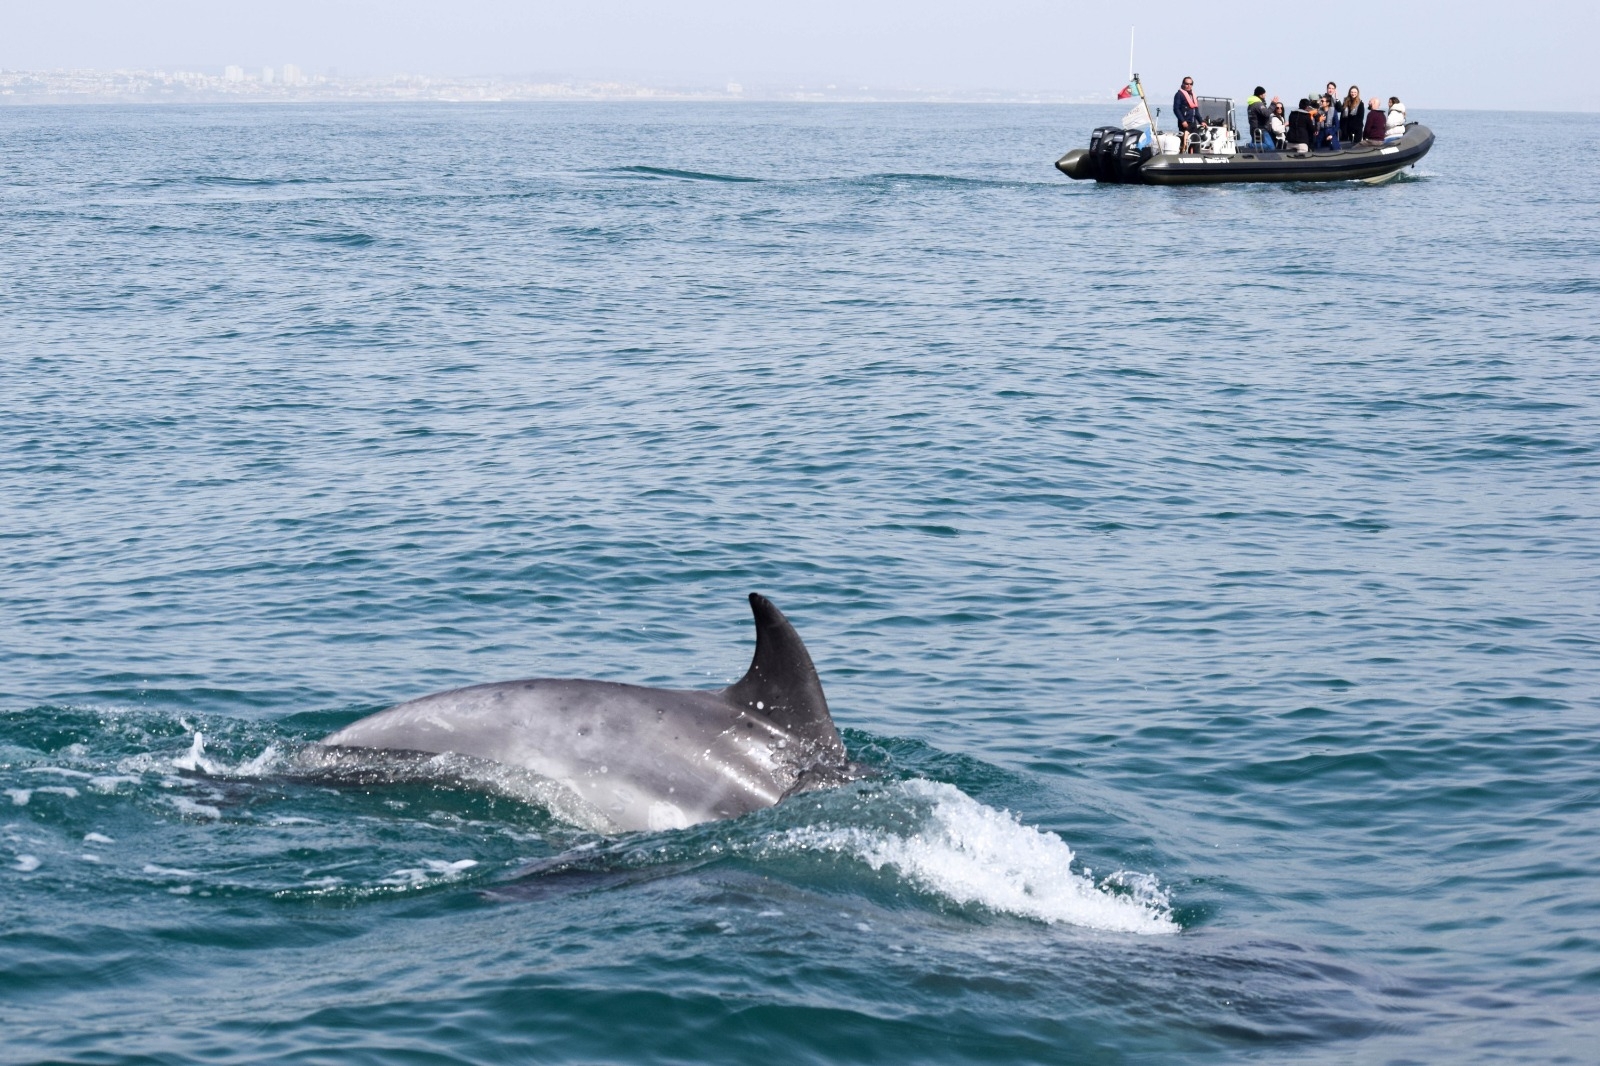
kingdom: Animalia
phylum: Chordata
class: Mammalia
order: Cetacea
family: Delphinidae
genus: Tursiops
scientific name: Tursiops truncatus
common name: Bottlenose dolphin
